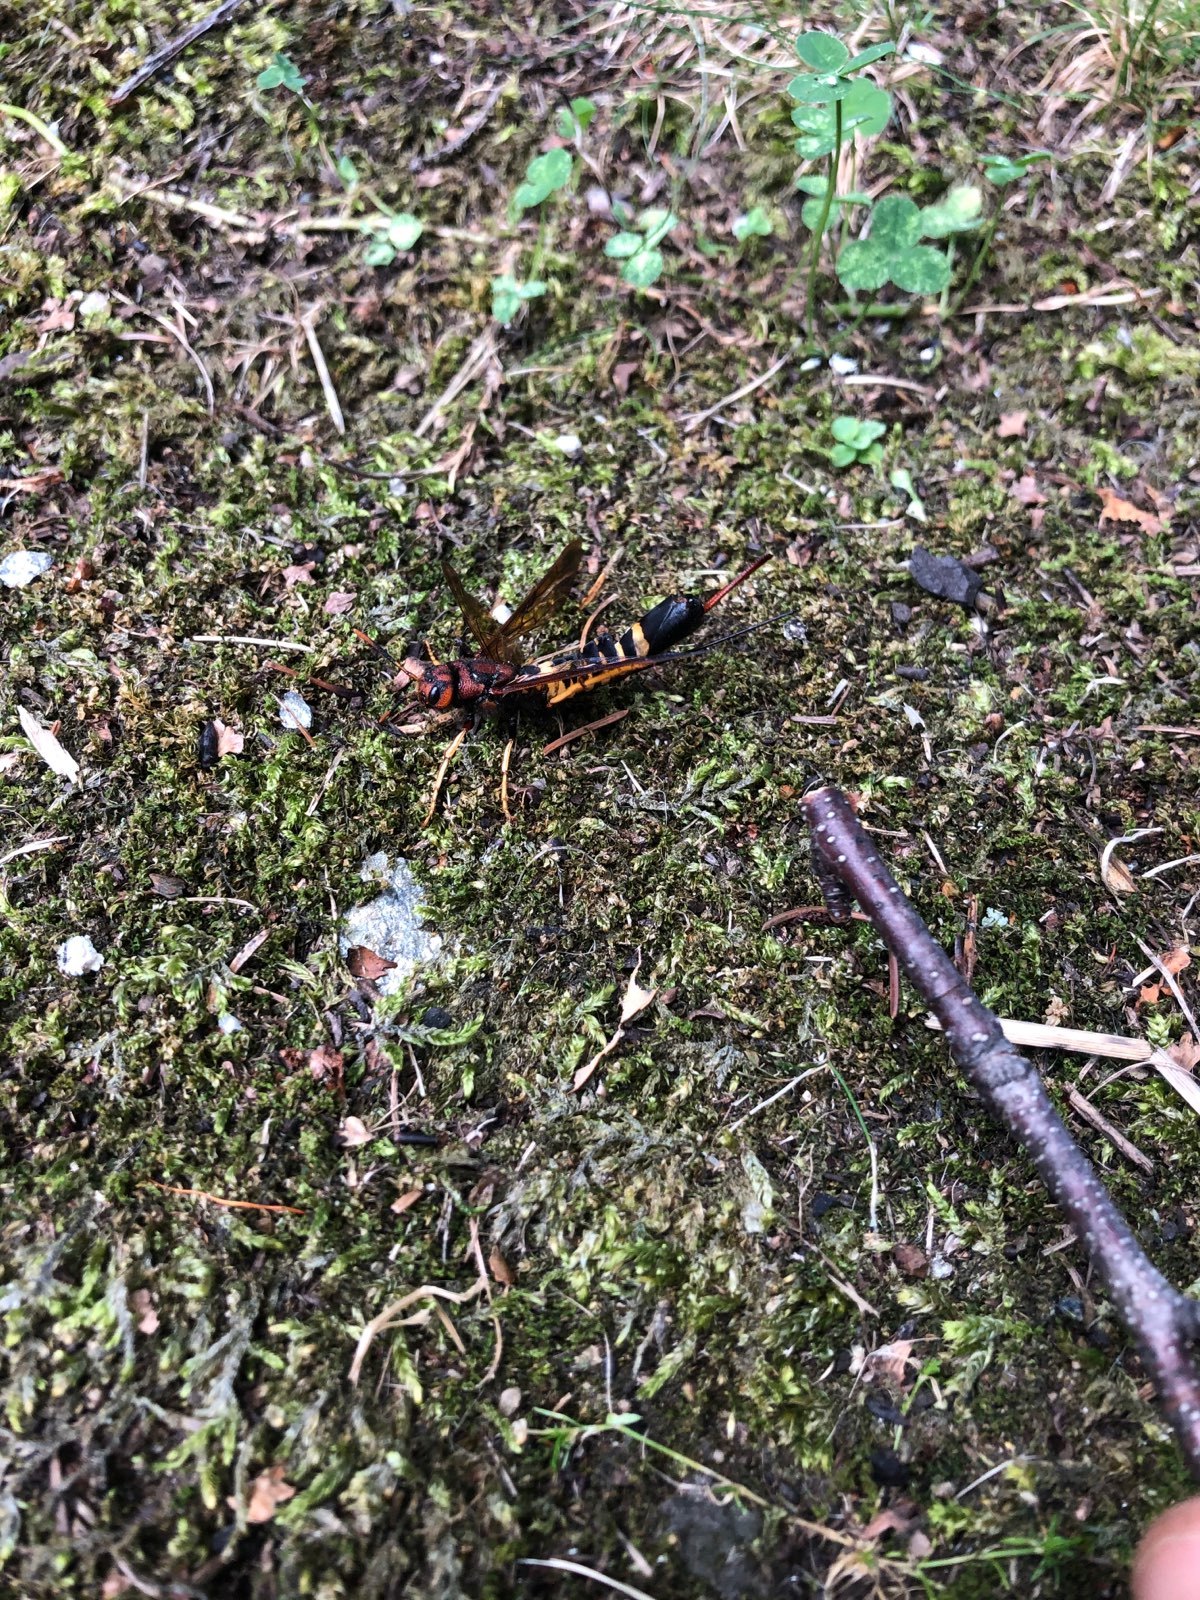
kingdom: Animalia
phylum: Arthropoda
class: Insecta
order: Hymenoptera
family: Siricidae
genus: Tremex
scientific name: Tremex columba
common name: Wasp
